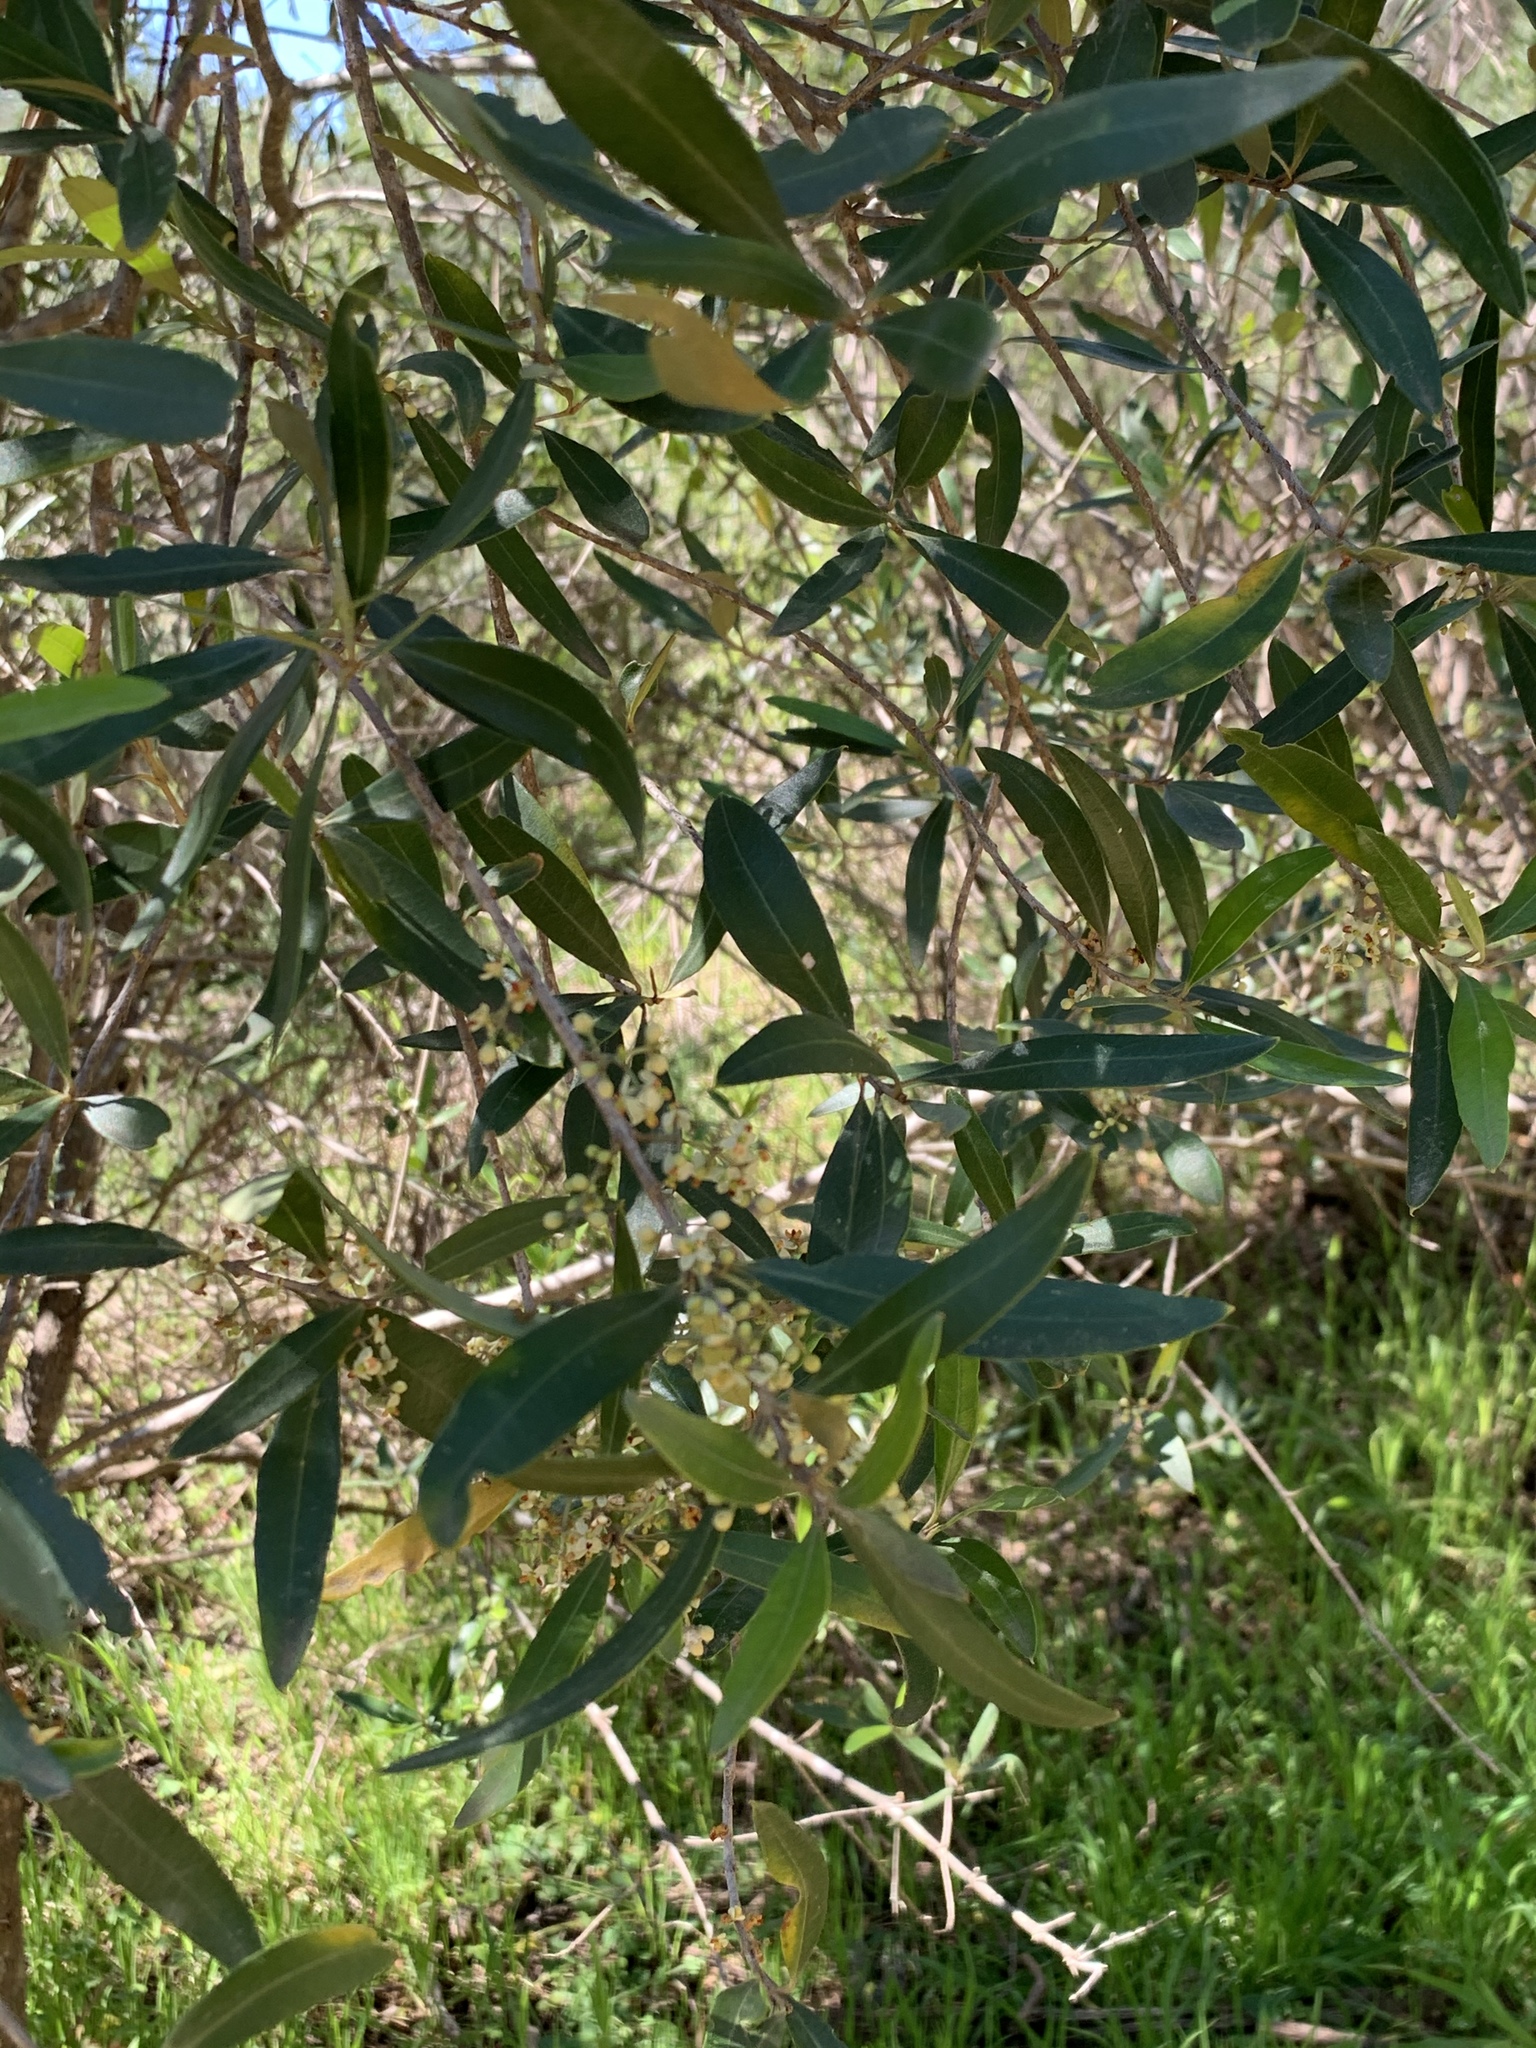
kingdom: Plantae
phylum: Tracheophyta
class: Magnoliopsida
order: Lamiales
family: Oleaceae
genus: Olea
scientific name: Olea europaea
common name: Olive
